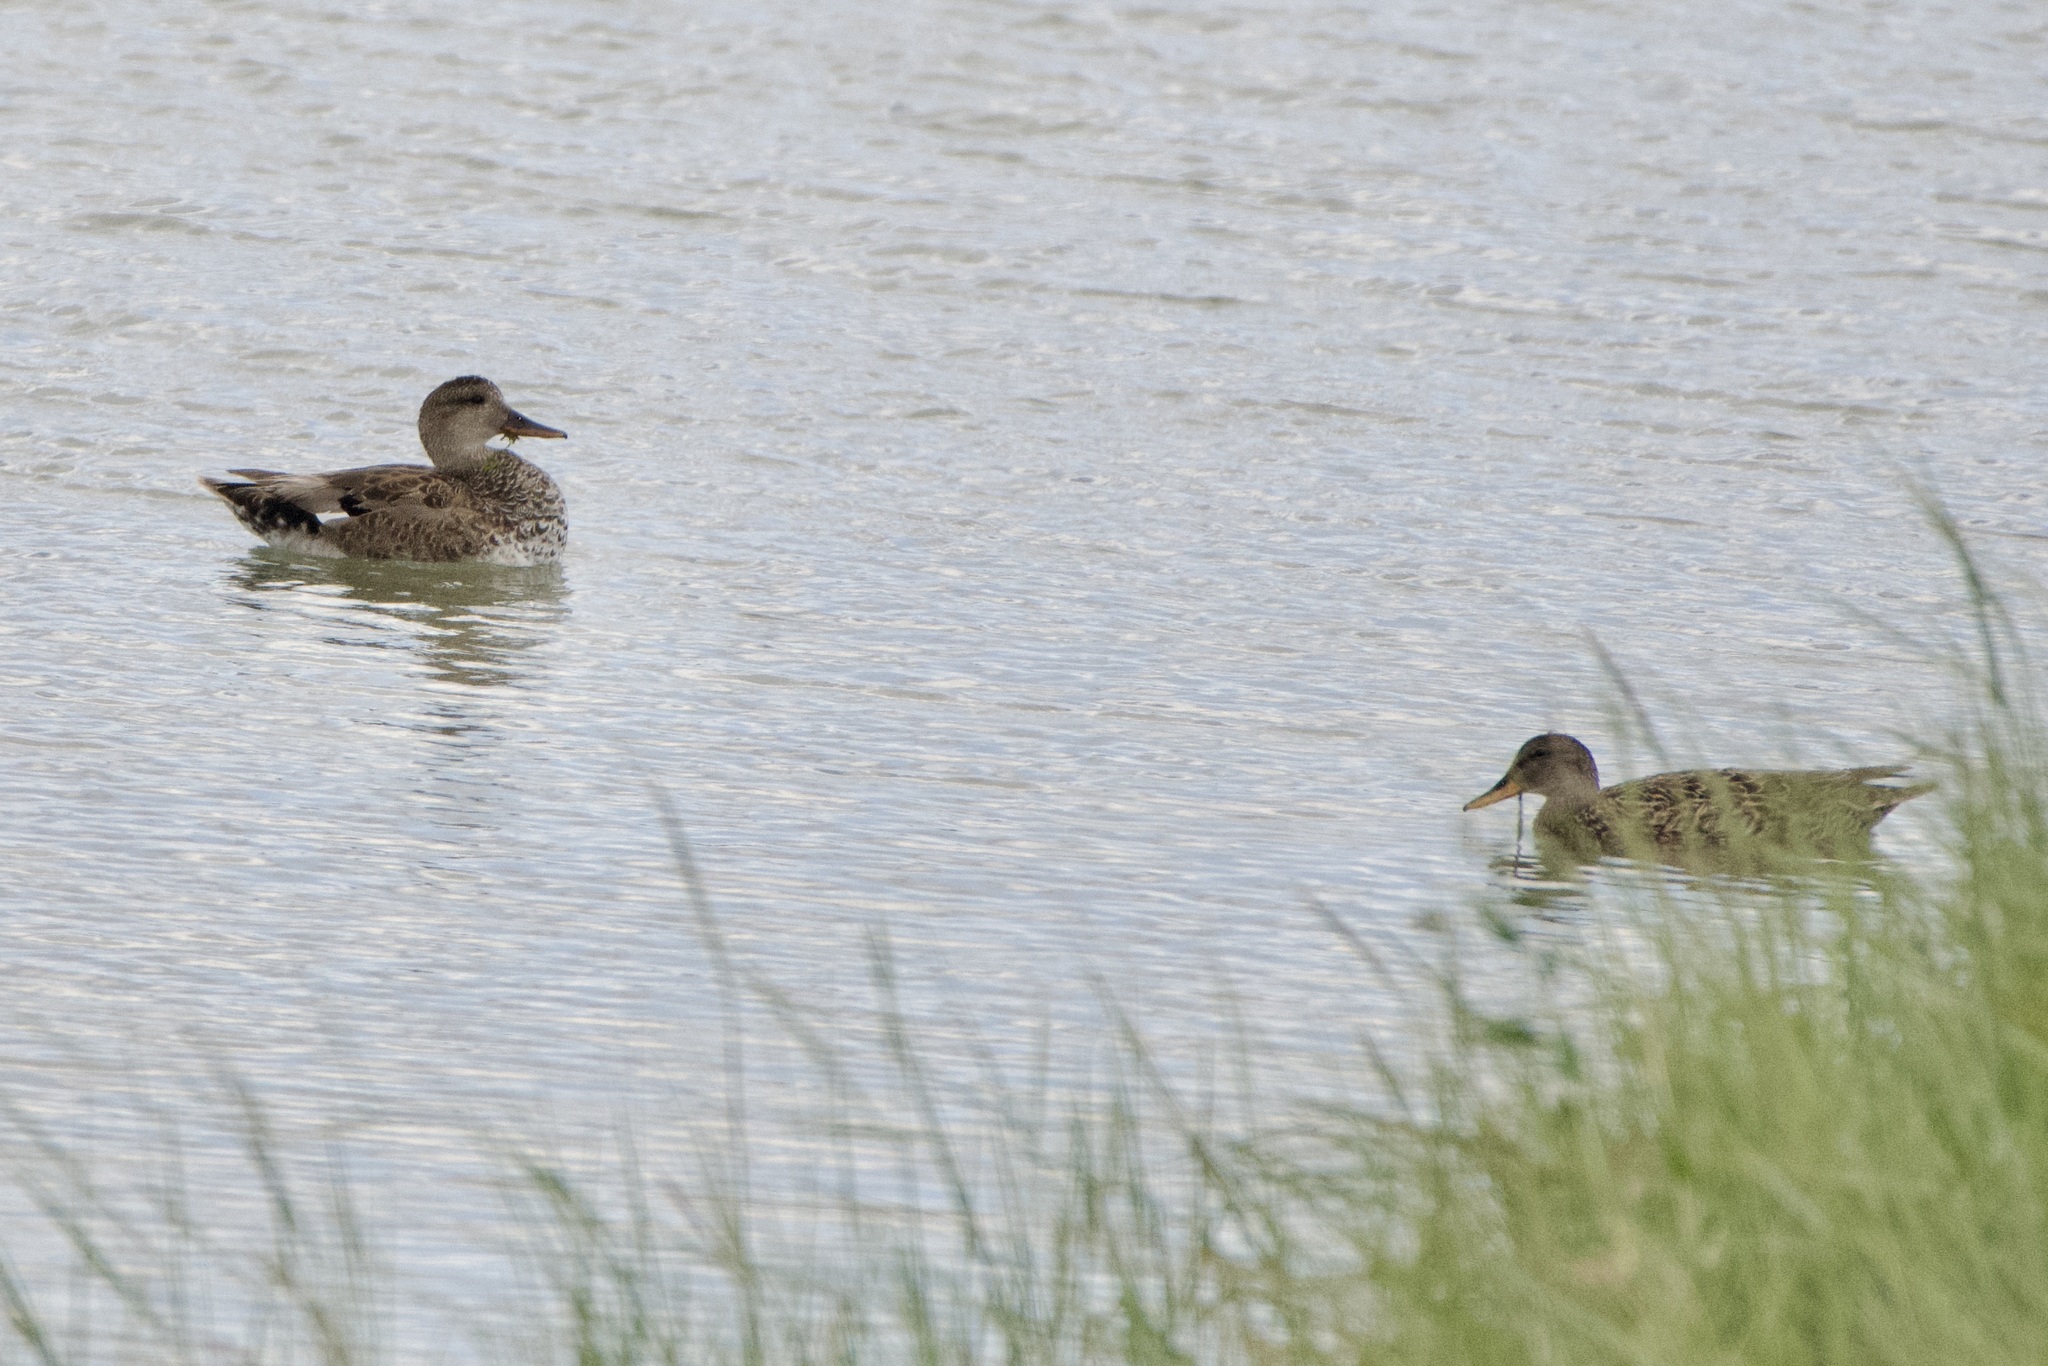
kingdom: Animalia
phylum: Chordata
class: Aves
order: Anseriformes
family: Anatidae
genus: Mareca
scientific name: Mareca strepera
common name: Gadwall
